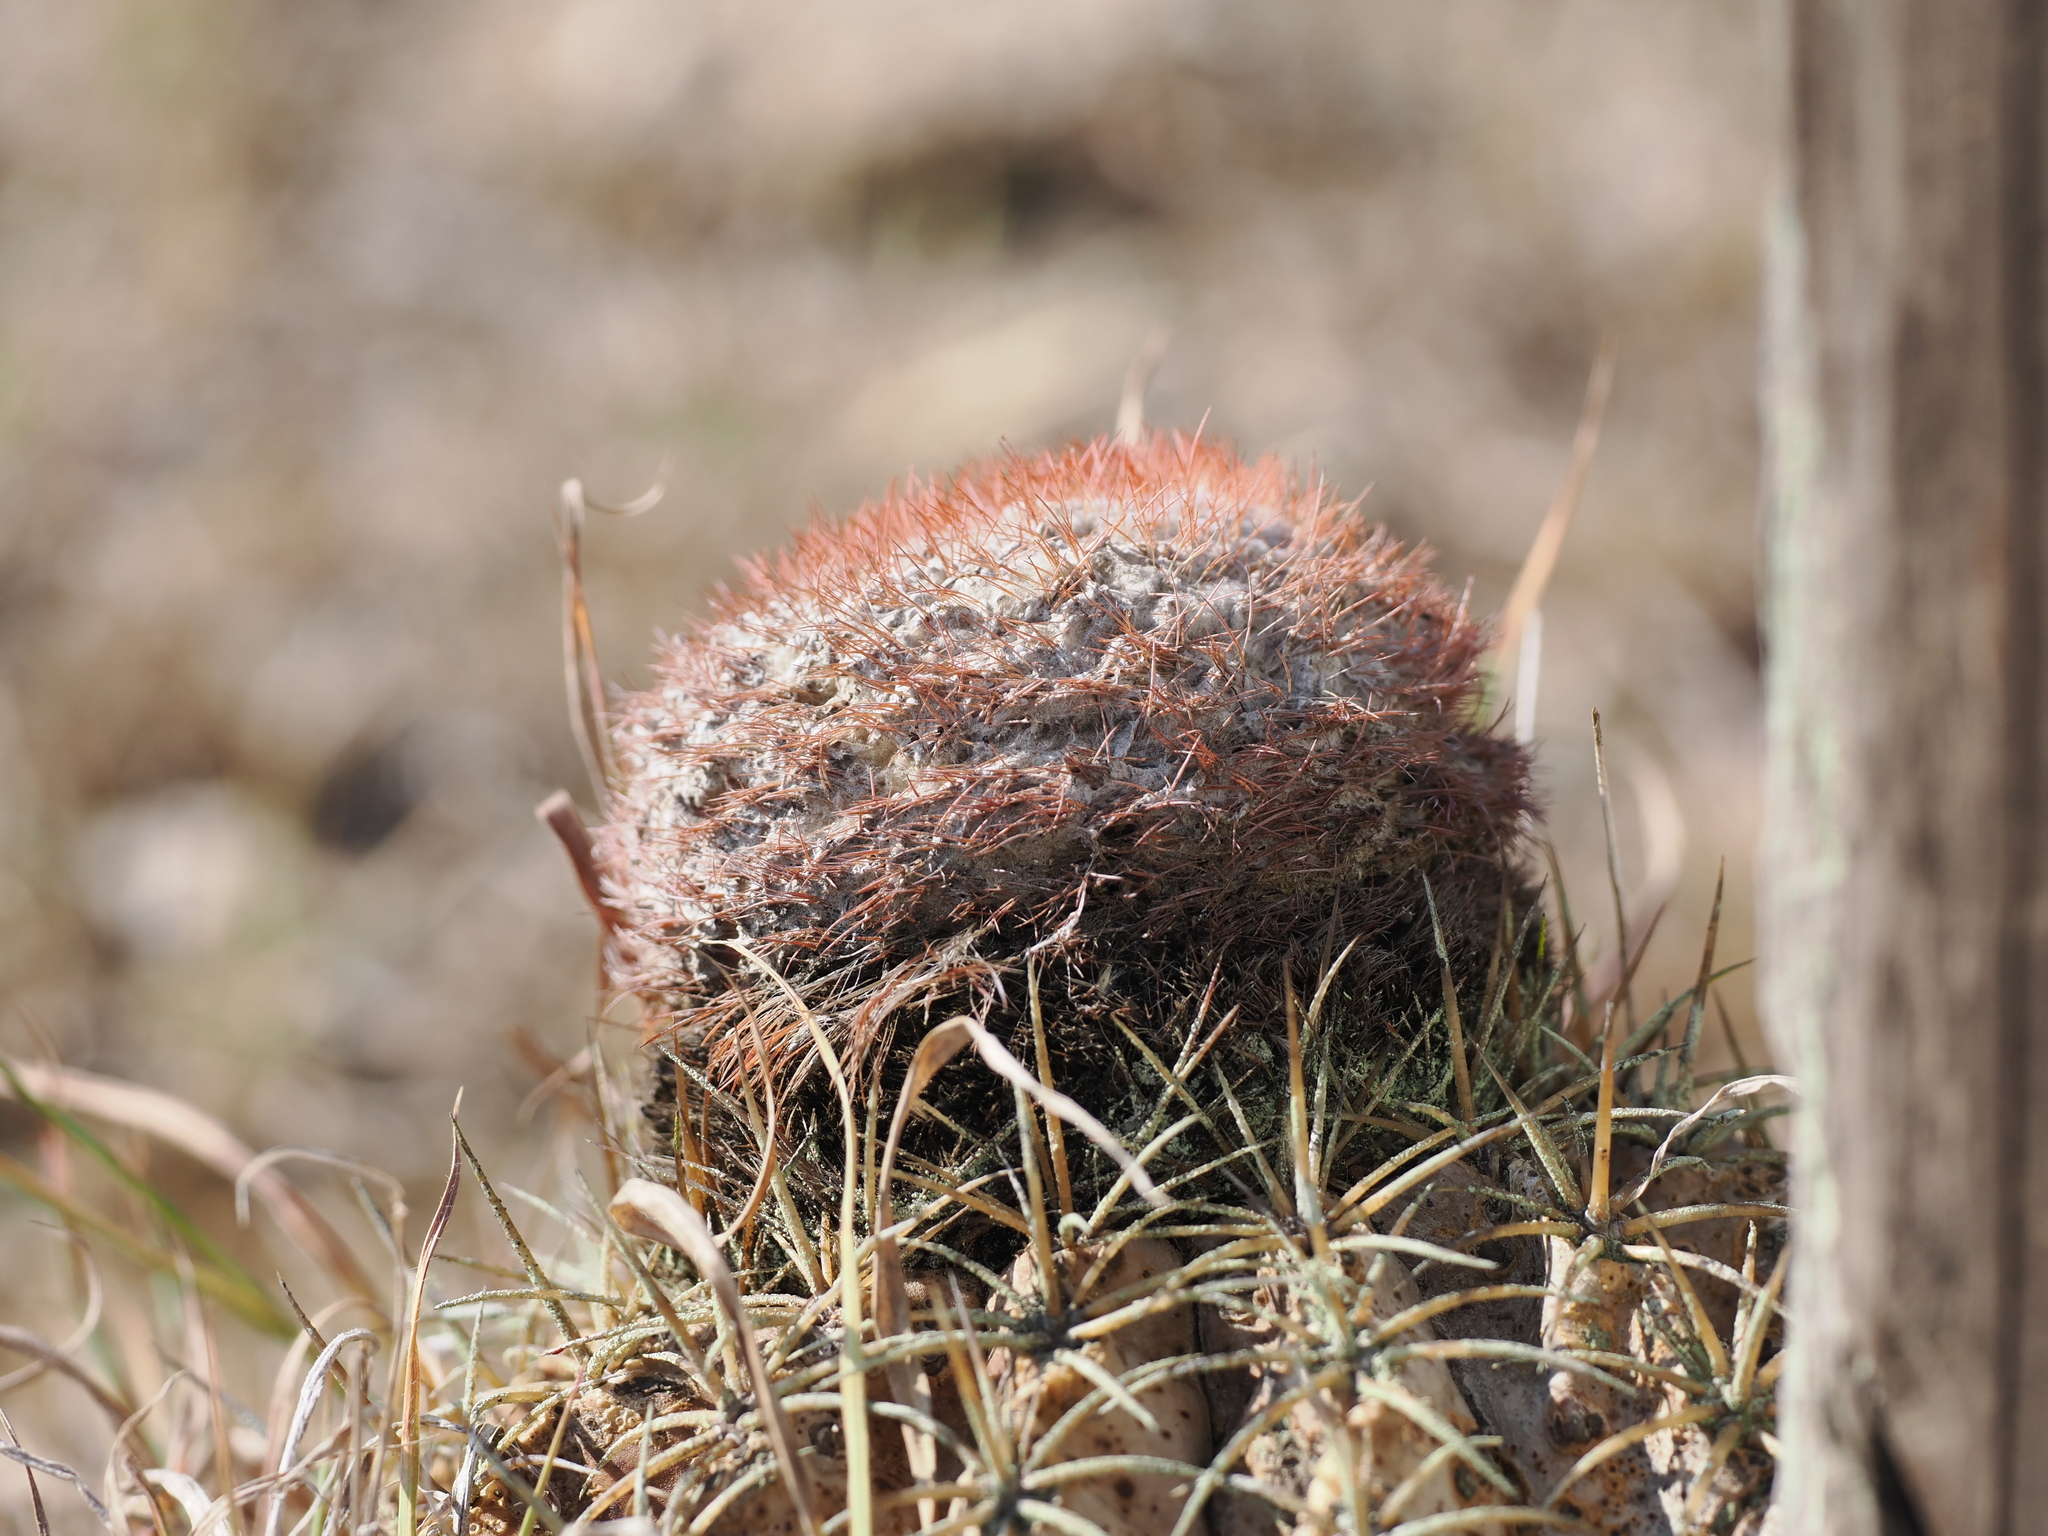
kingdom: Plantae
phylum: Tracheophyta
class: Magnoliopsida
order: Caryophyllales
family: Cactaceae
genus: Melocactus
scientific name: Melocactus curvispinus
